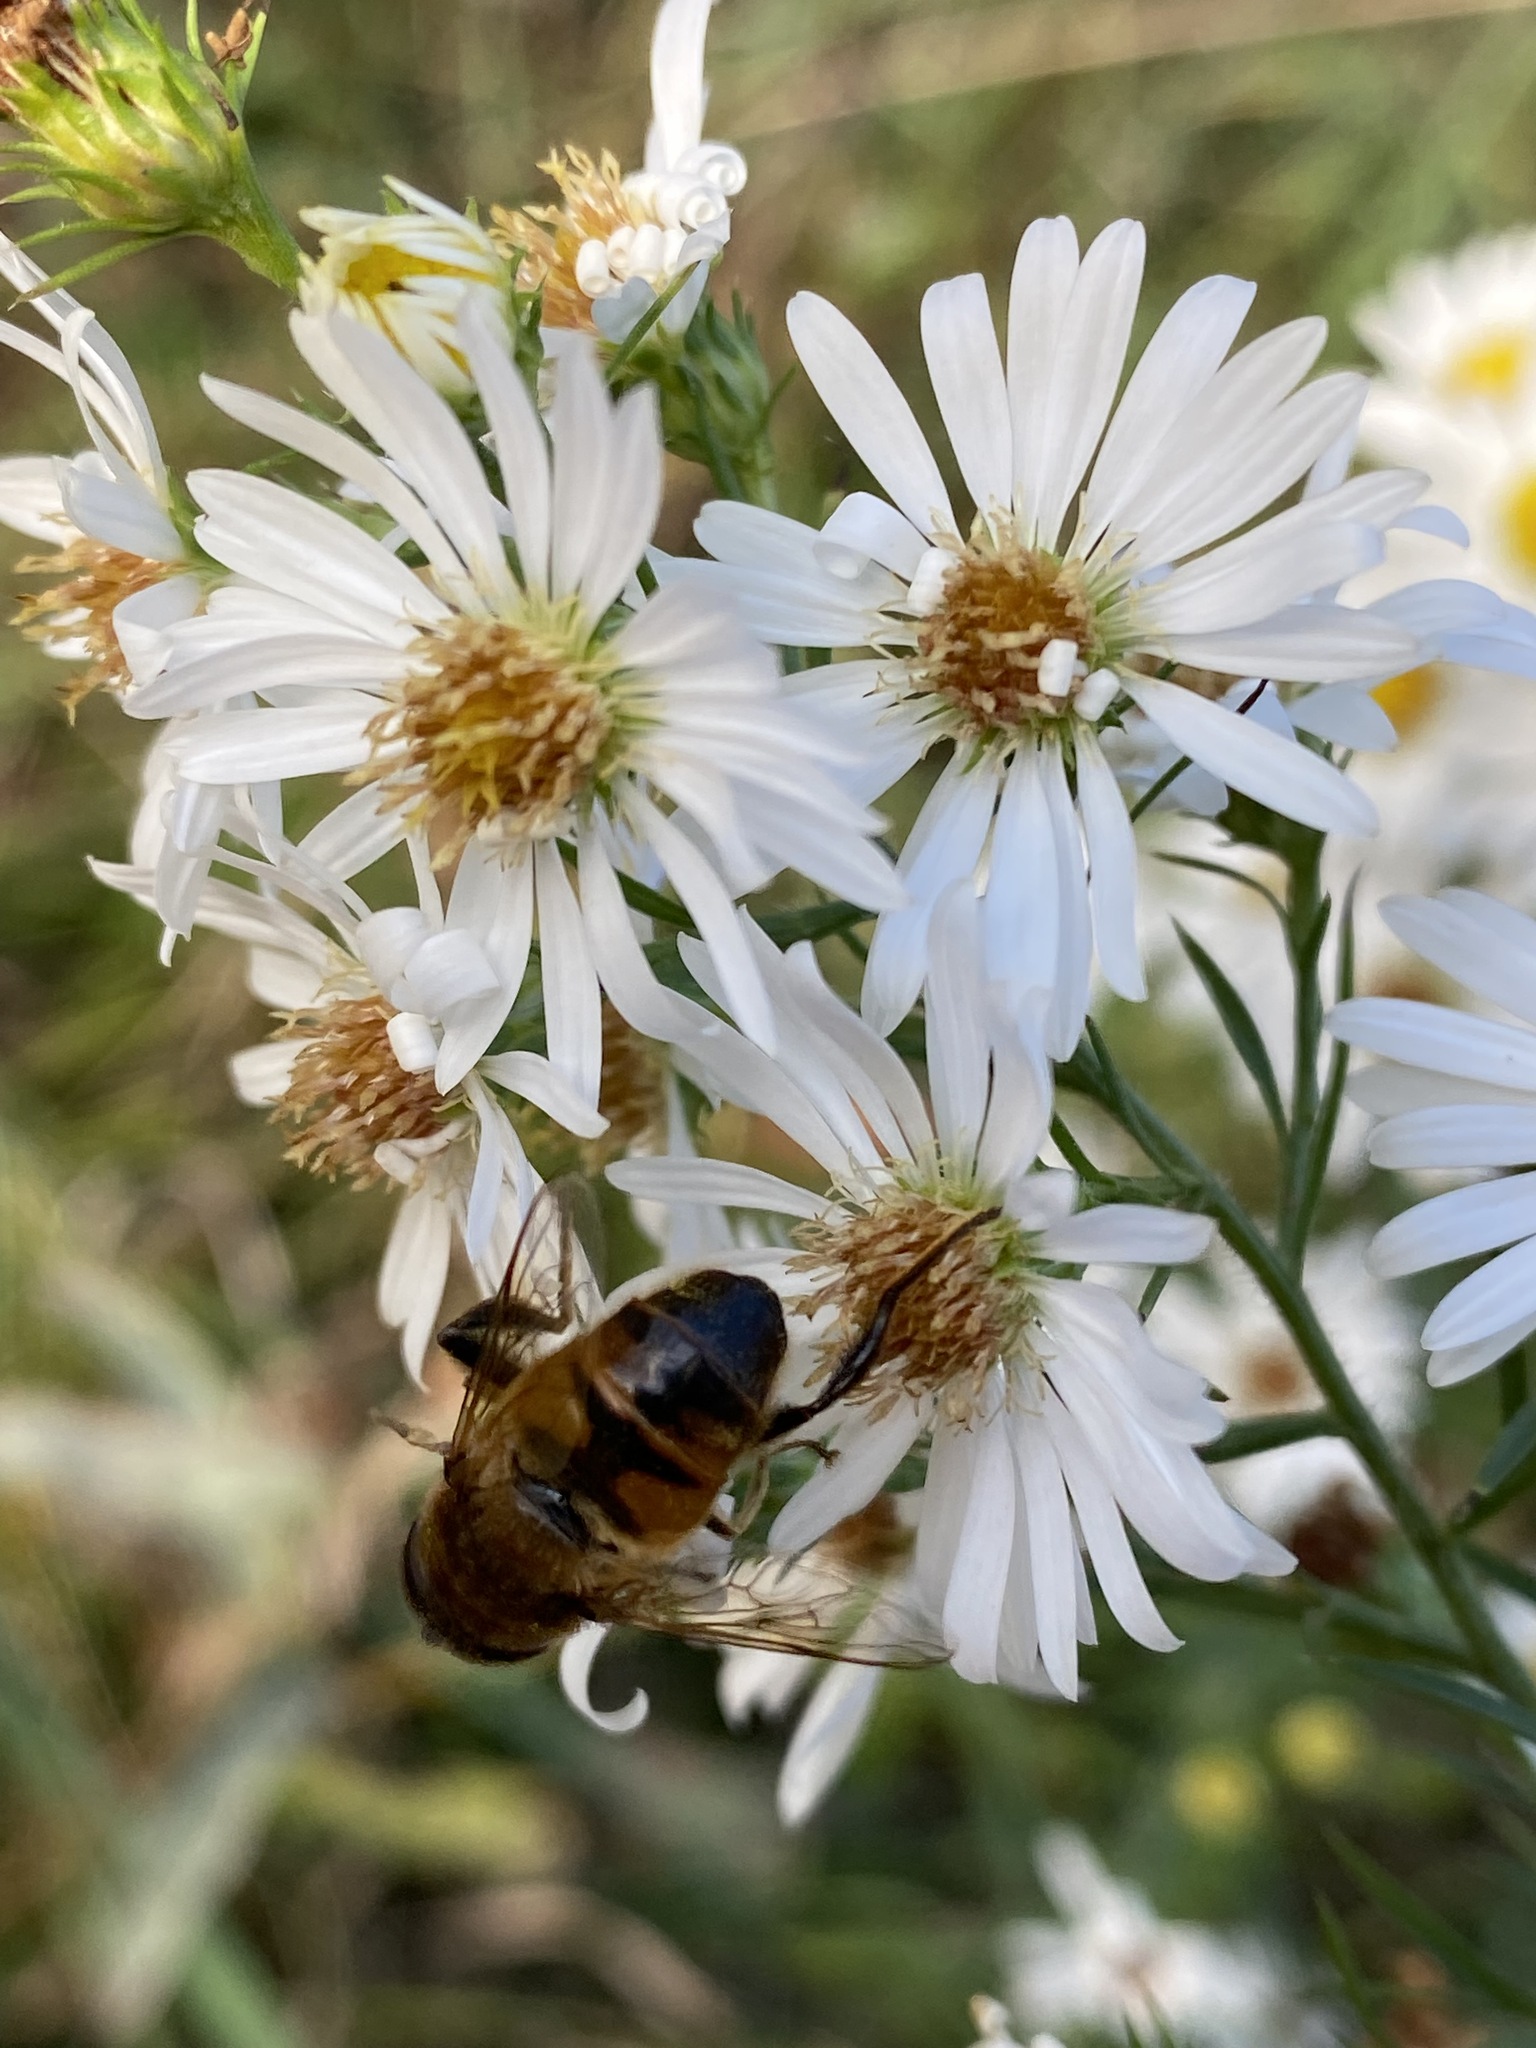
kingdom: Animalia
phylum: Arthropoda
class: Insecta
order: Diptera
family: Syrphidae
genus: Eristalis
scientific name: Eristalis tenax
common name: Drone fly
